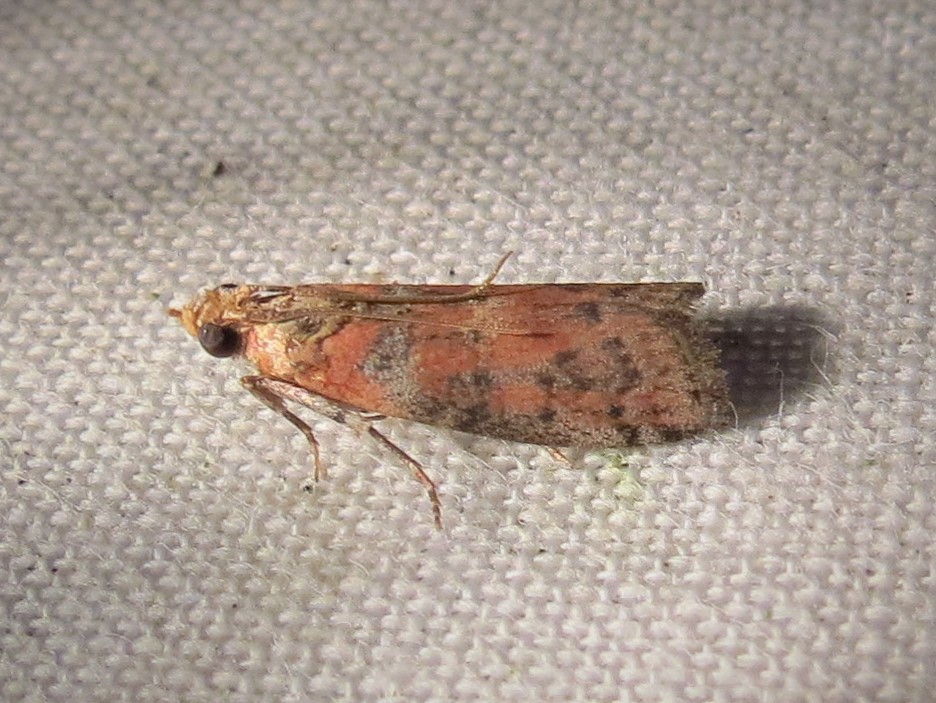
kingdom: Animalia
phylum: Arthropoda
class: Insecta
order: Lepidoptera
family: Pyralidae
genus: Sciota
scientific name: Sciota
